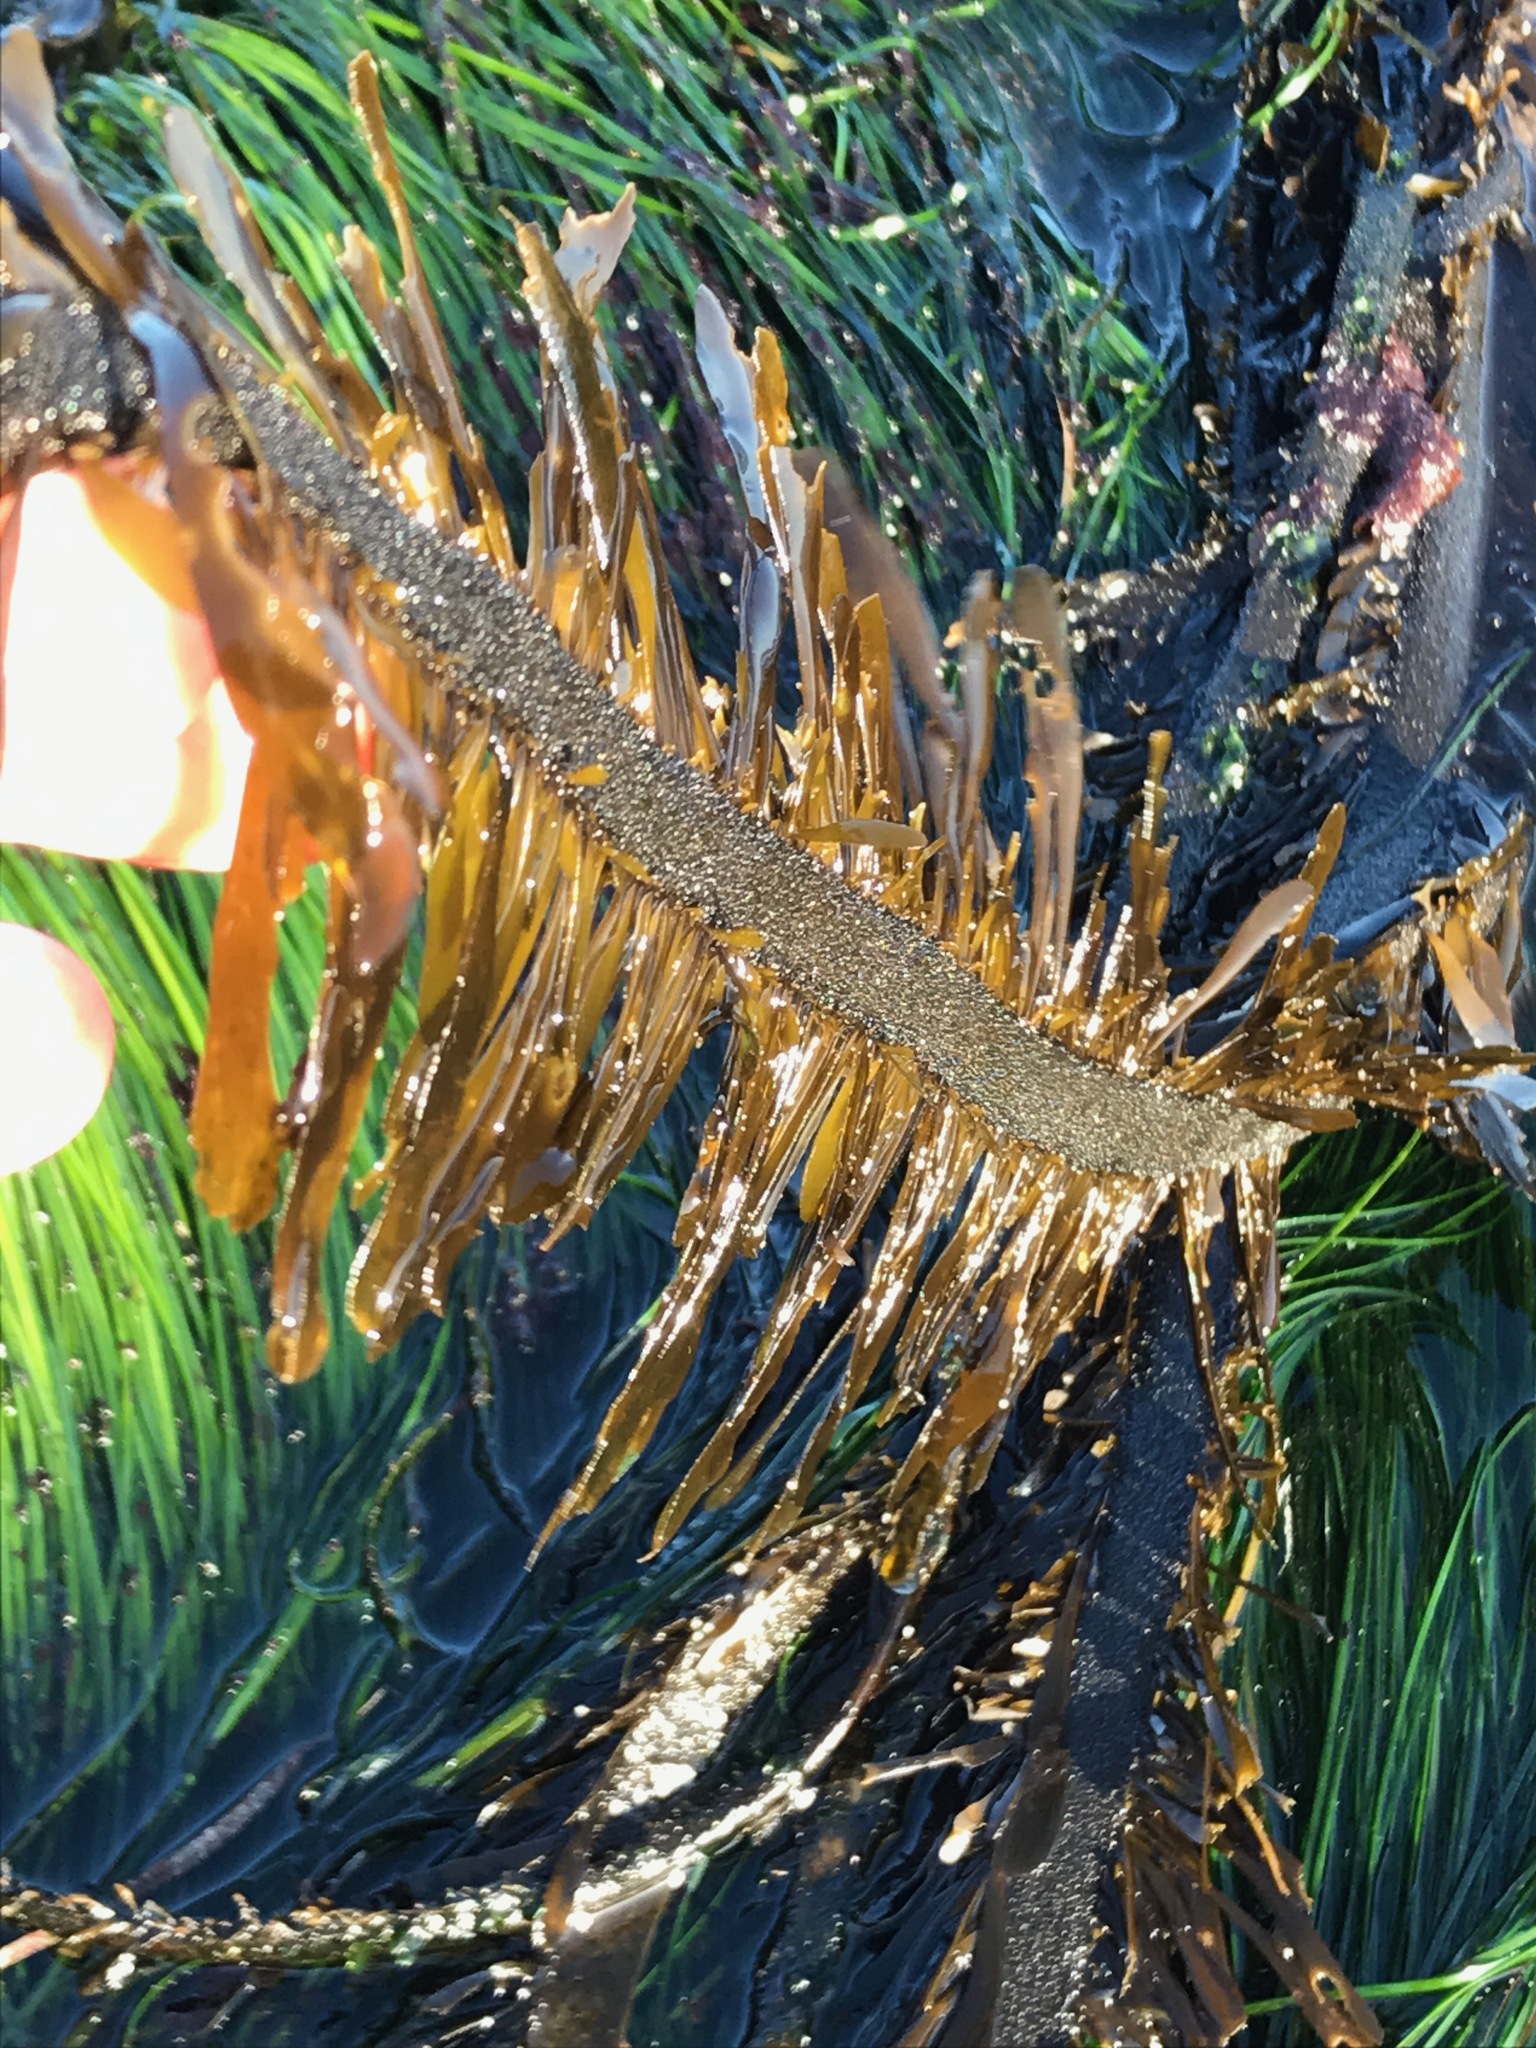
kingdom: Chromista
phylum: Ochrophyta
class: Phaeophyceae
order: Laminariales
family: Lessoniaceae
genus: Egregia
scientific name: Egregia menziesii
